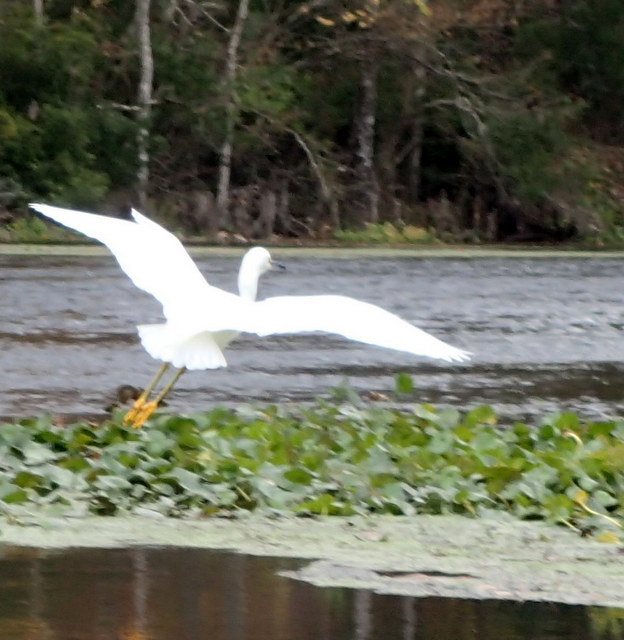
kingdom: Animalia
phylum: Chordata
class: Aves
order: Pelecaniformes
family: Ardeidae
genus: Egretta
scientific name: Egretta thula
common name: Snowy egret
